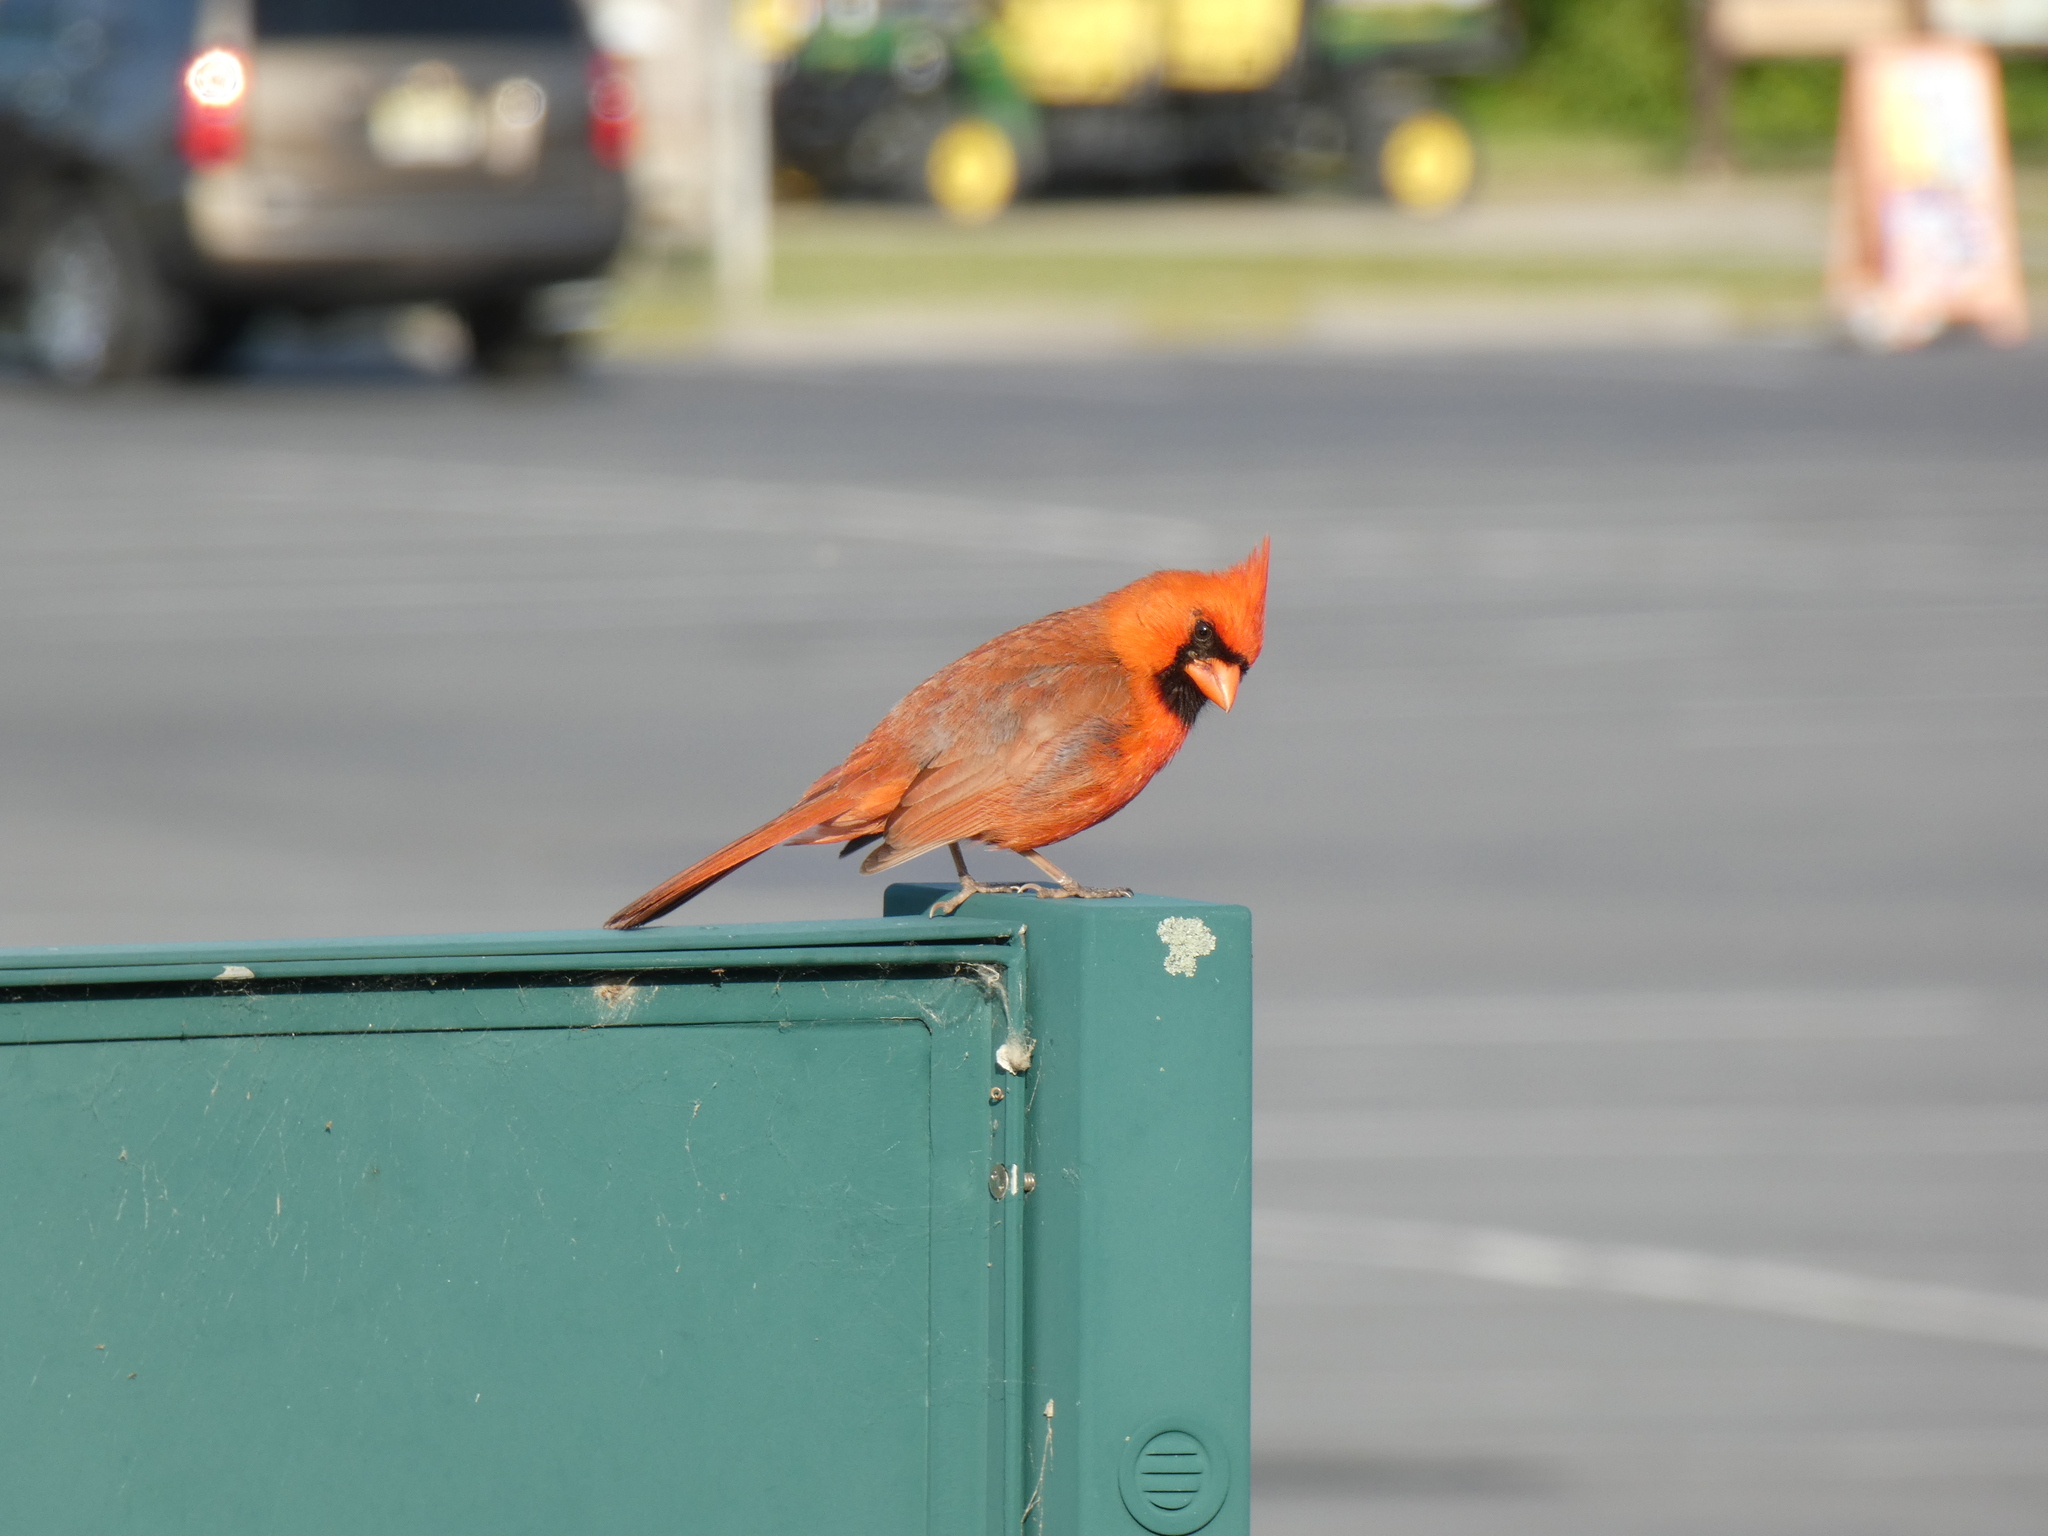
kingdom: Animalia
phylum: Chordata
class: Aves
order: Passeriformes
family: Cardinalidae
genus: Cardinalis
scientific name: Cardinalis cardinalis
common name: Northern cardinal
